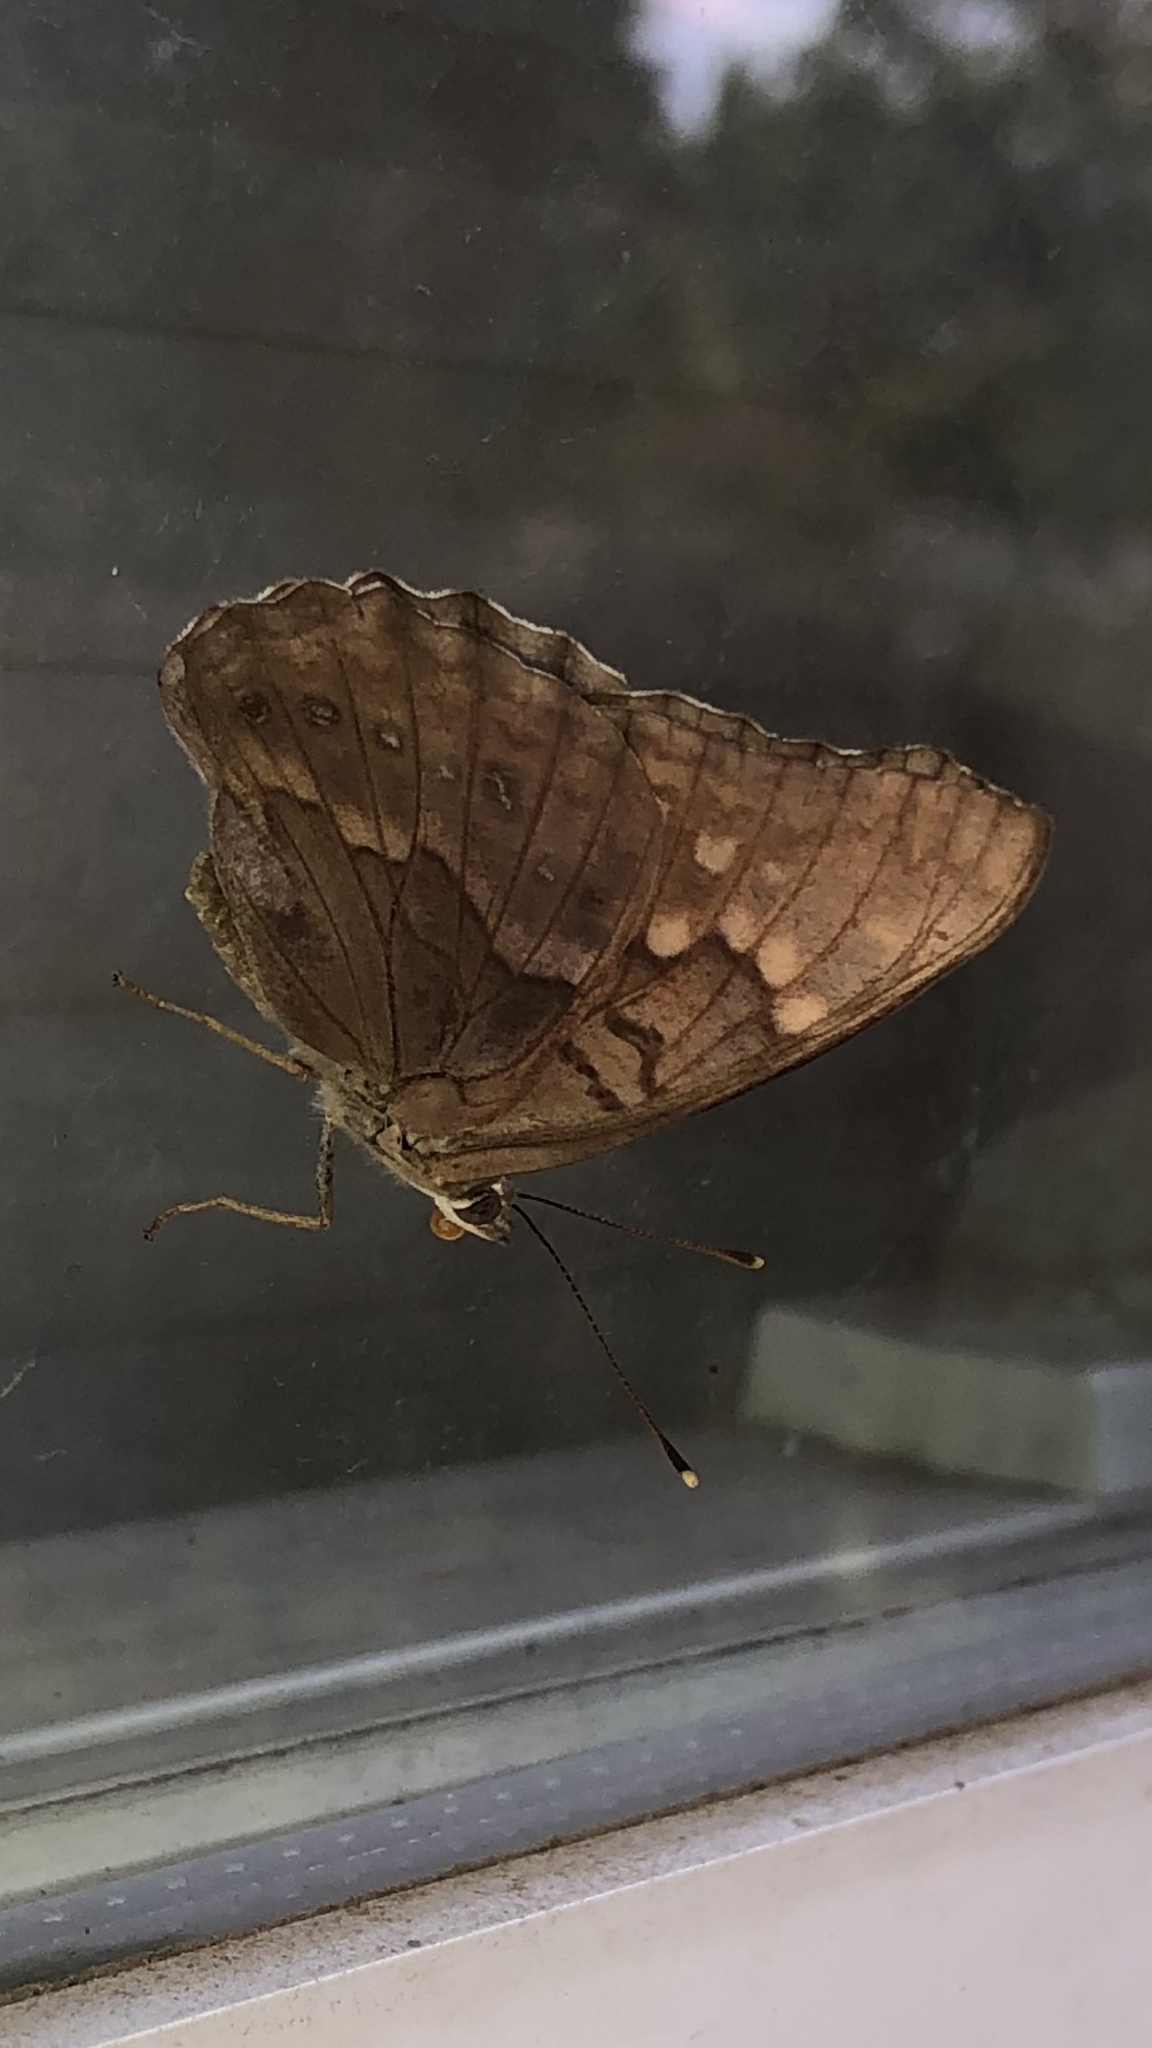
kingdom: Animalia
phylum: Arthropoda
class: Insecta
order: Lepidoptera
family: Nymphalidae
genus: Asterocampa
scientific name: Asterocampa clyton
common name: Tawny emperor
